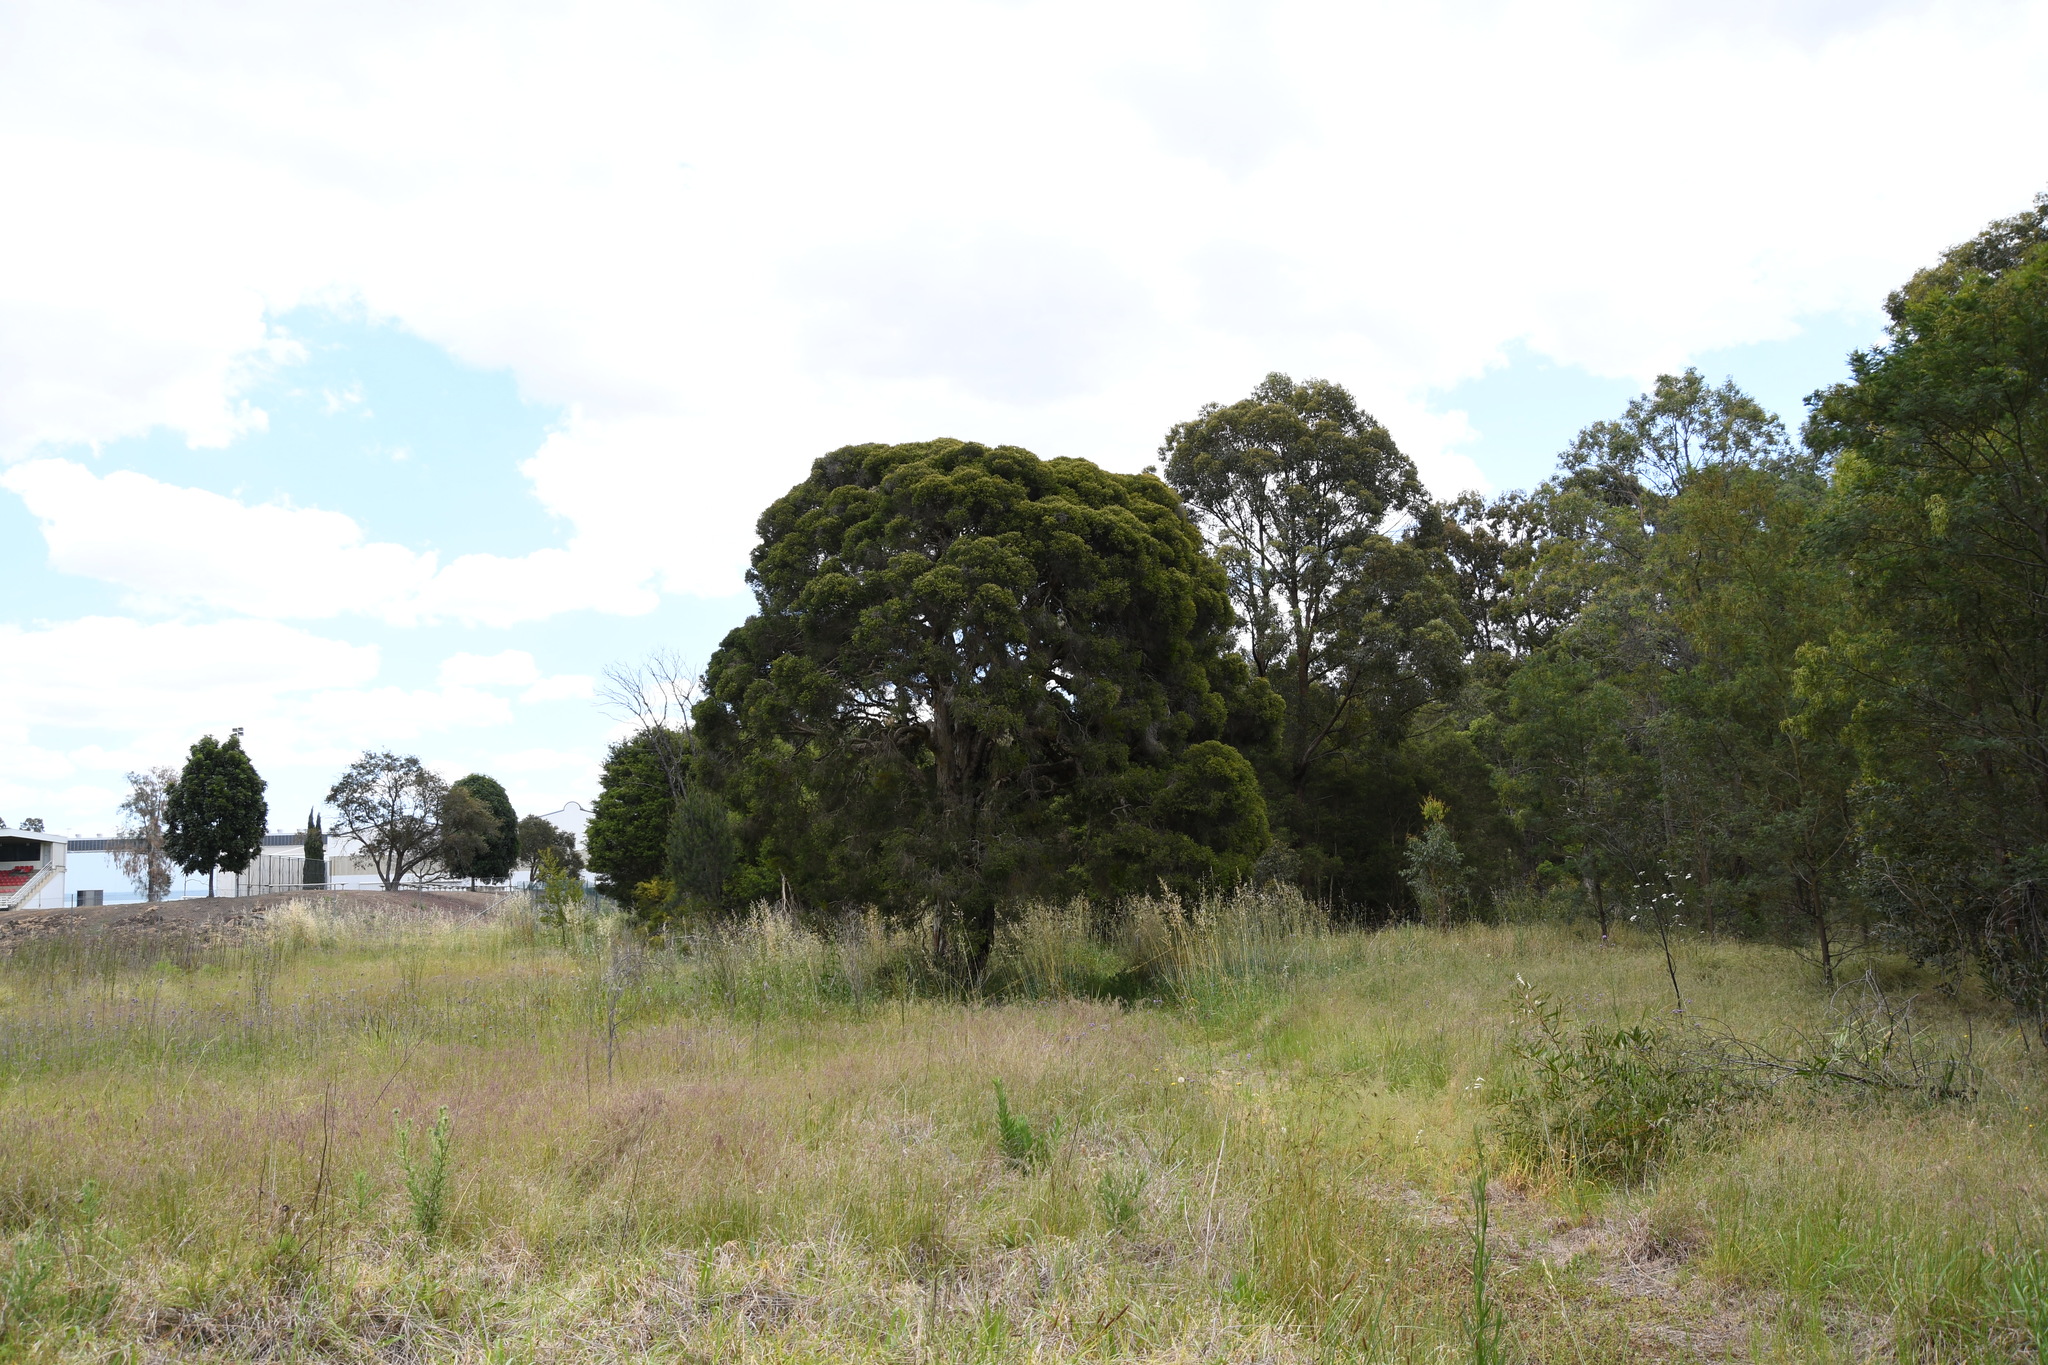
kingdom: Plantae
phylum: Tracheophyta
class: Magnoliopsida
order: Myrtales
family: Myrtaceae
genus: Melaleuca
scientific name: Melaleuca decora
